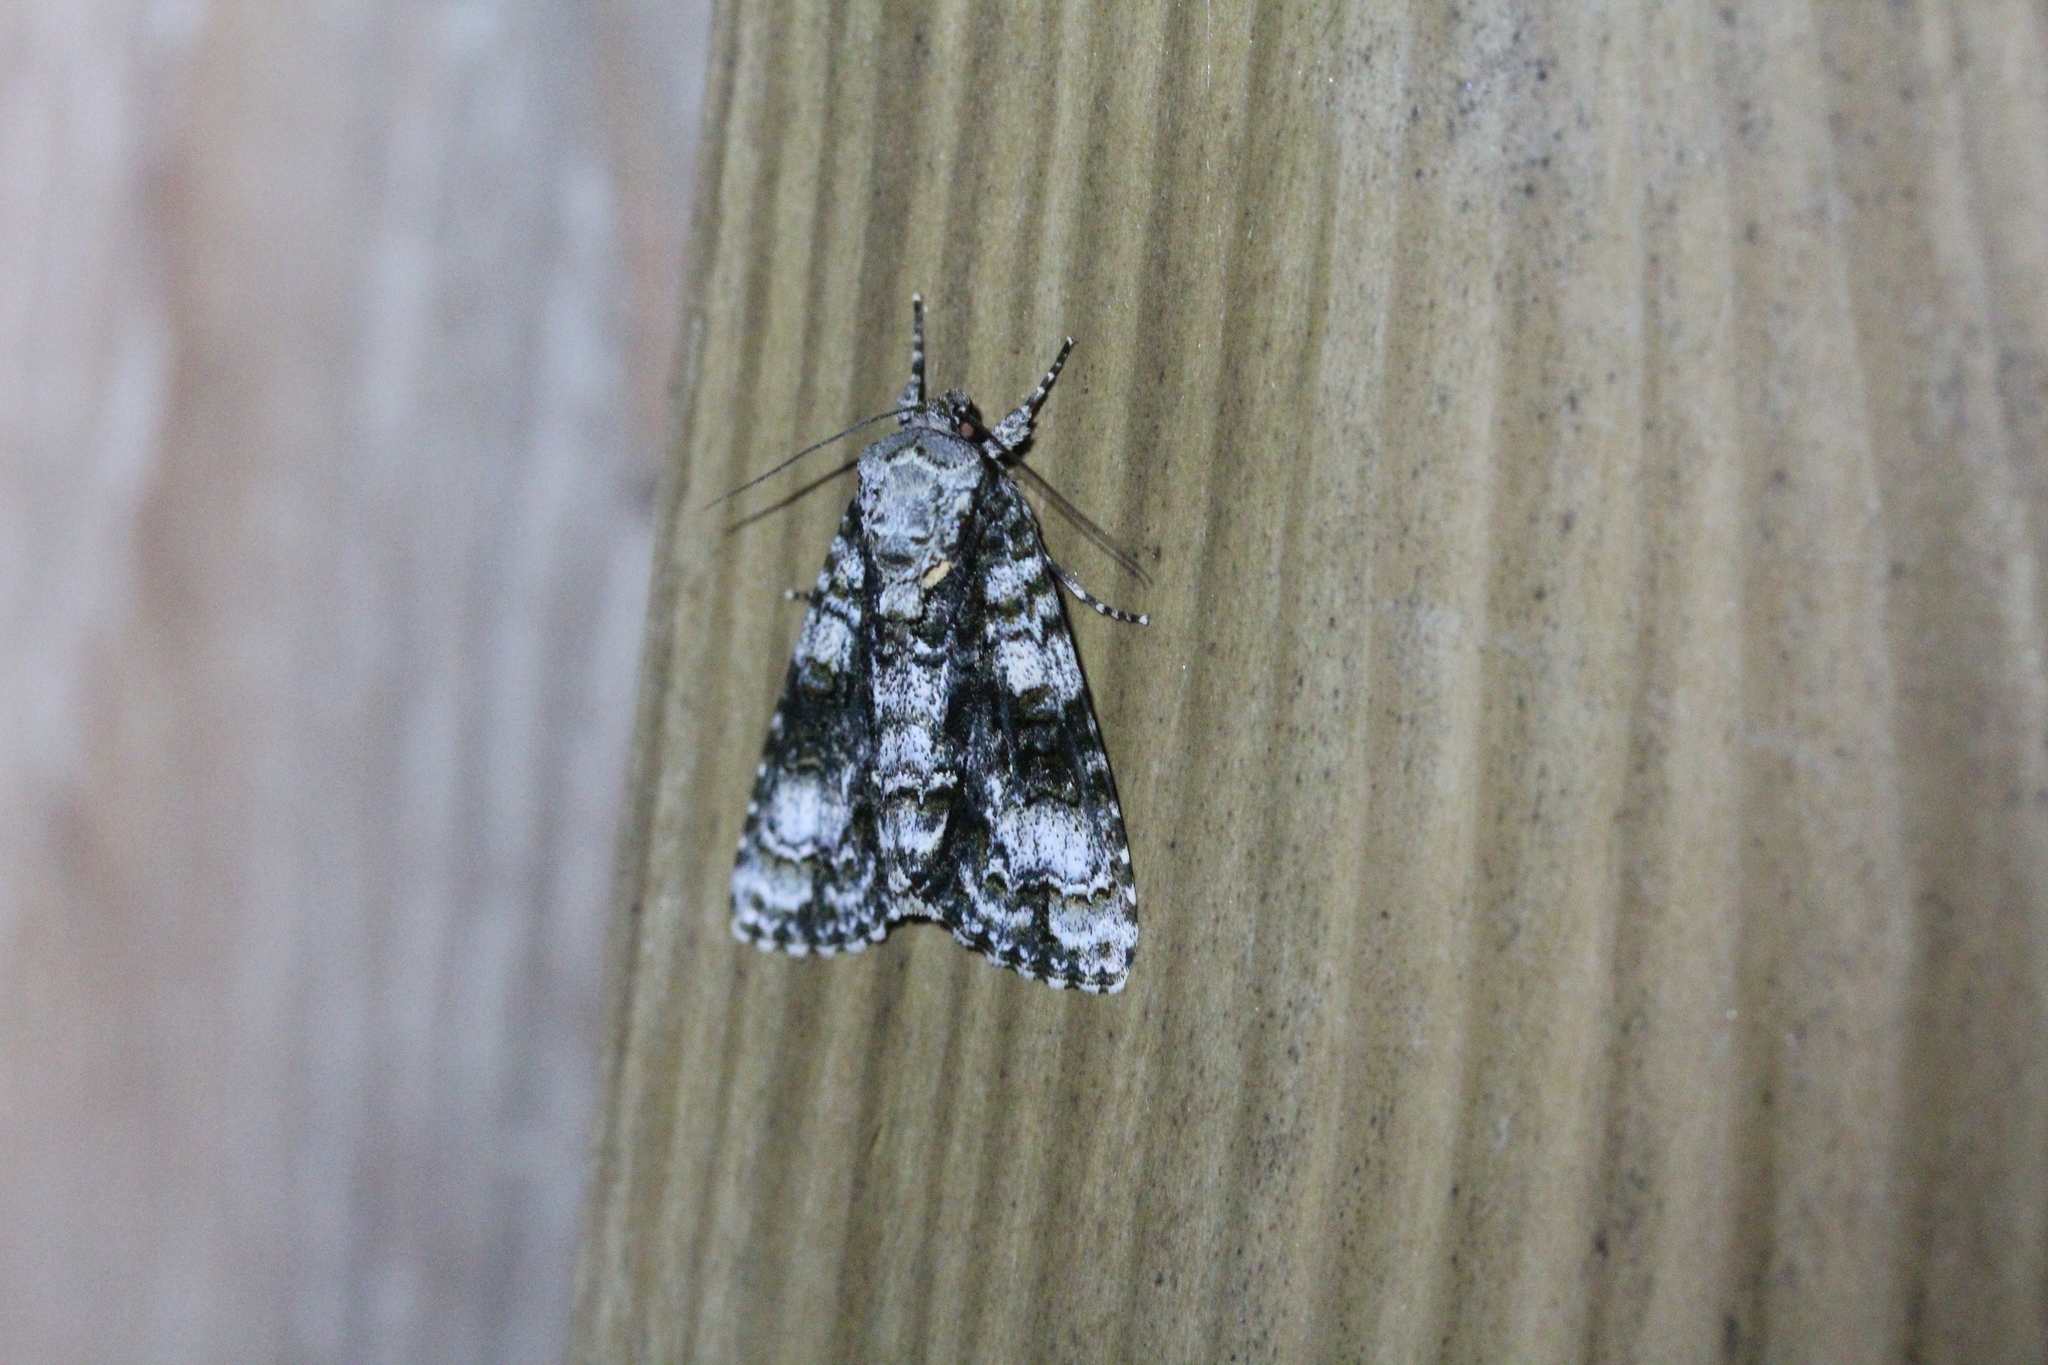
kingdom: Animalia
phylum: Arthropoda
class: Insecta
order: Lepidoptera
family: Noctuidae
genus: Acronicta
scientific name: Acronicta superans
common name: Splendid dagger
